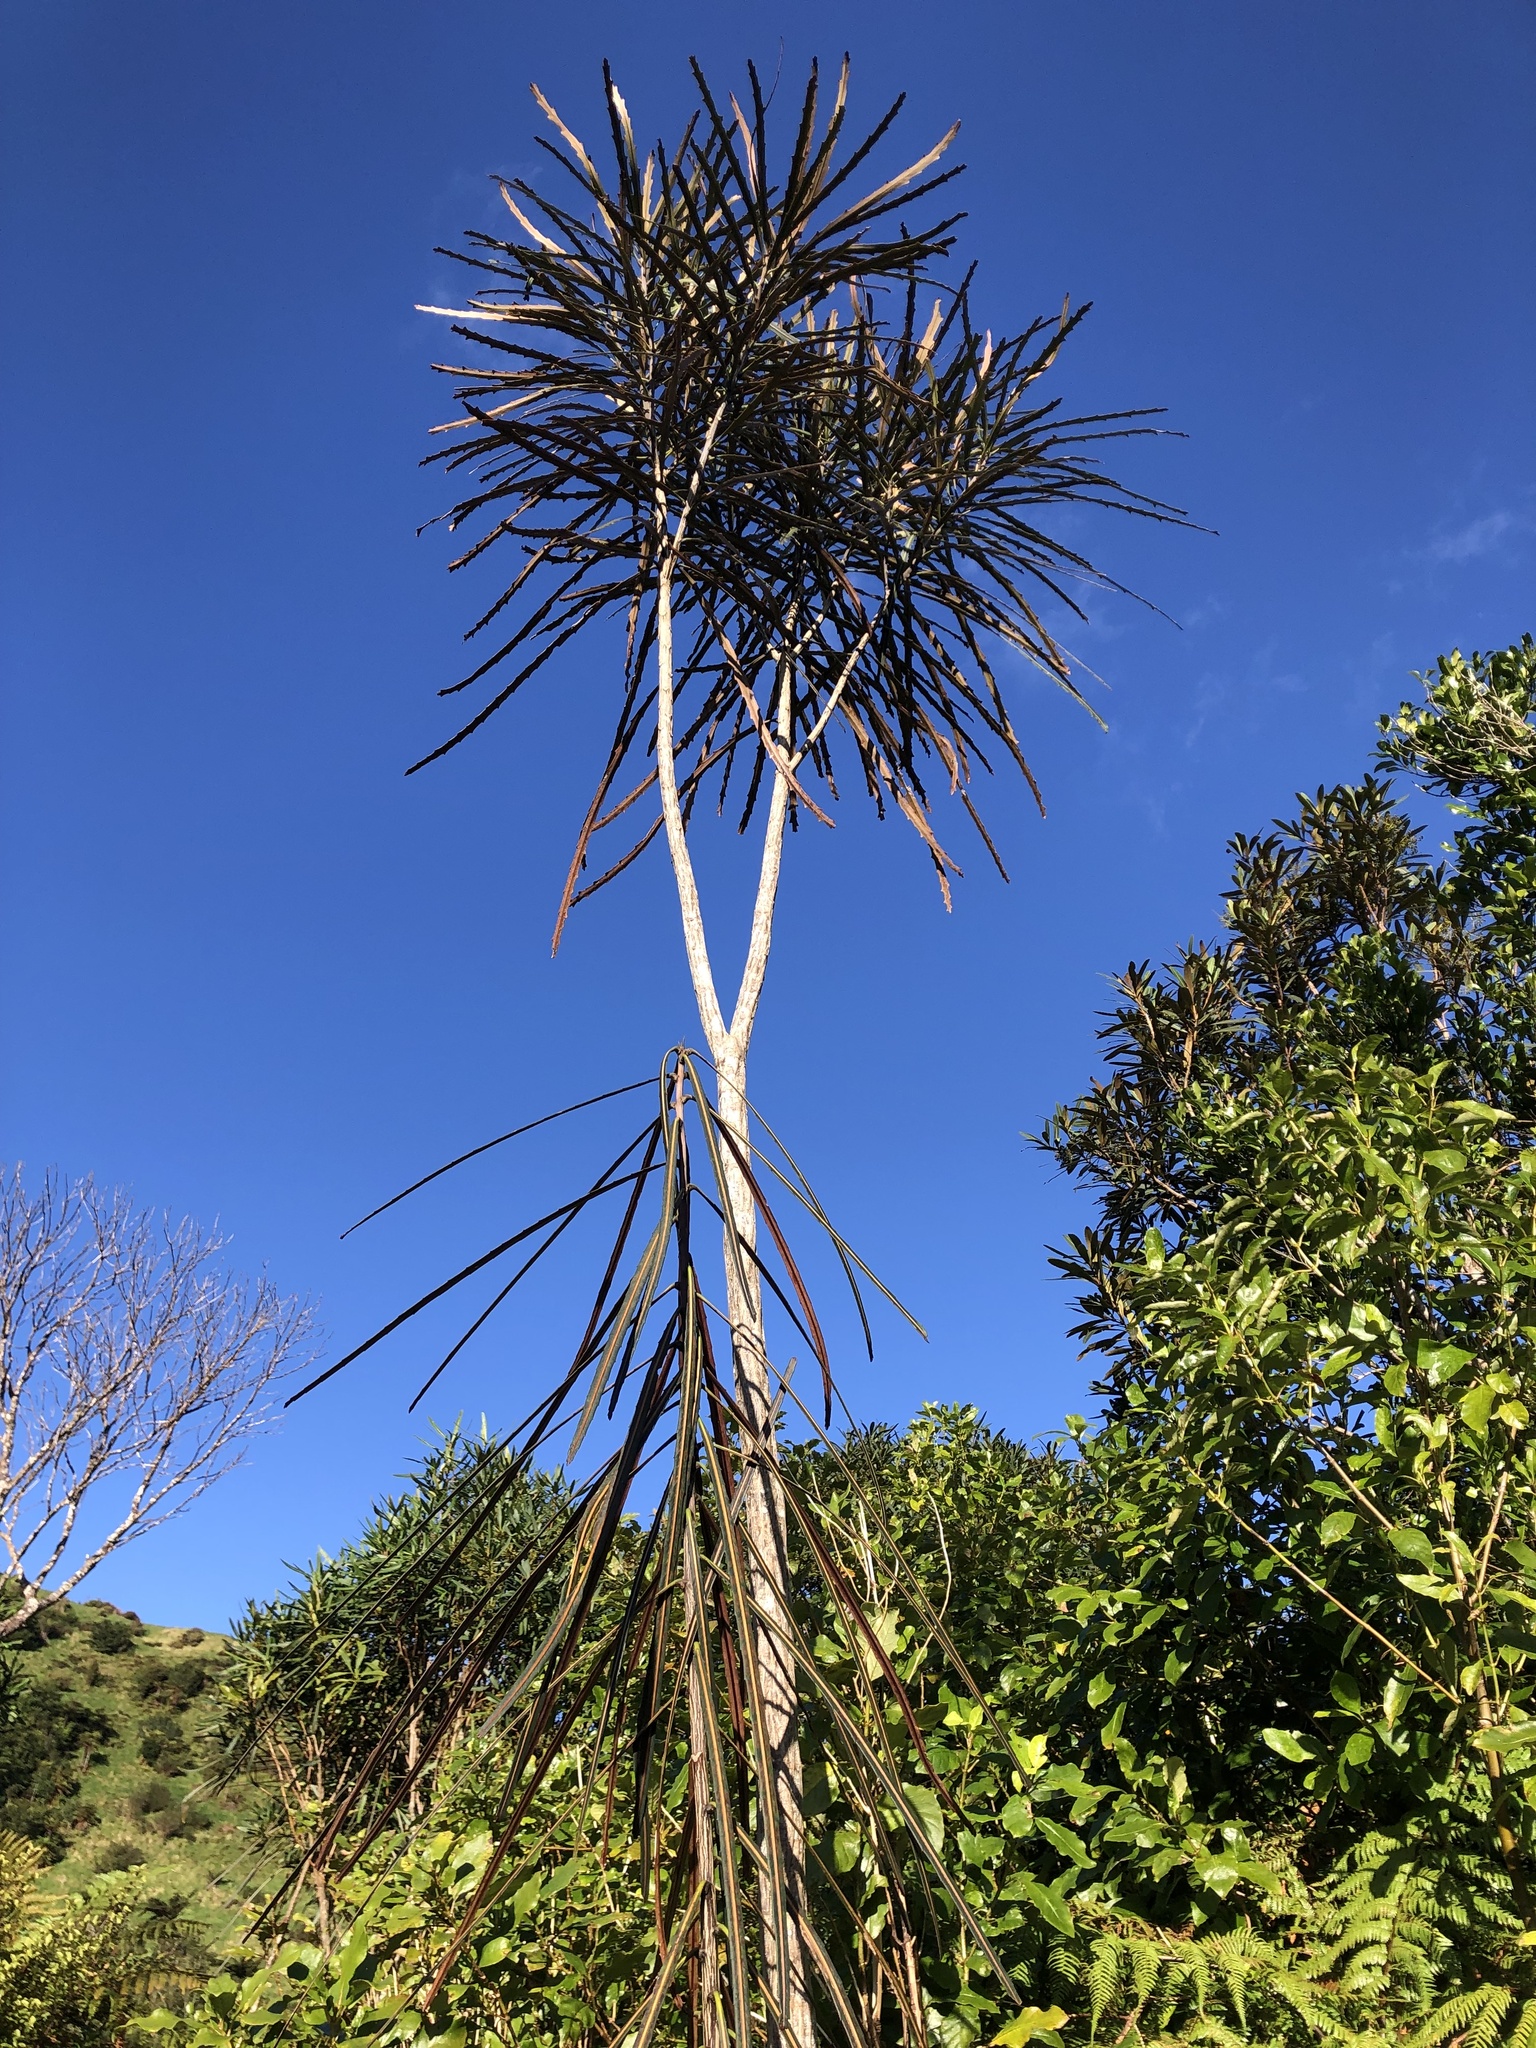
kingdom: Plantae
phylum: Tracheophyta
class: Magnoliopsida
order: Apiales
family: Araliaceae
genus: Pseudopanax
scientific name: Pseudopanax crassifolius
